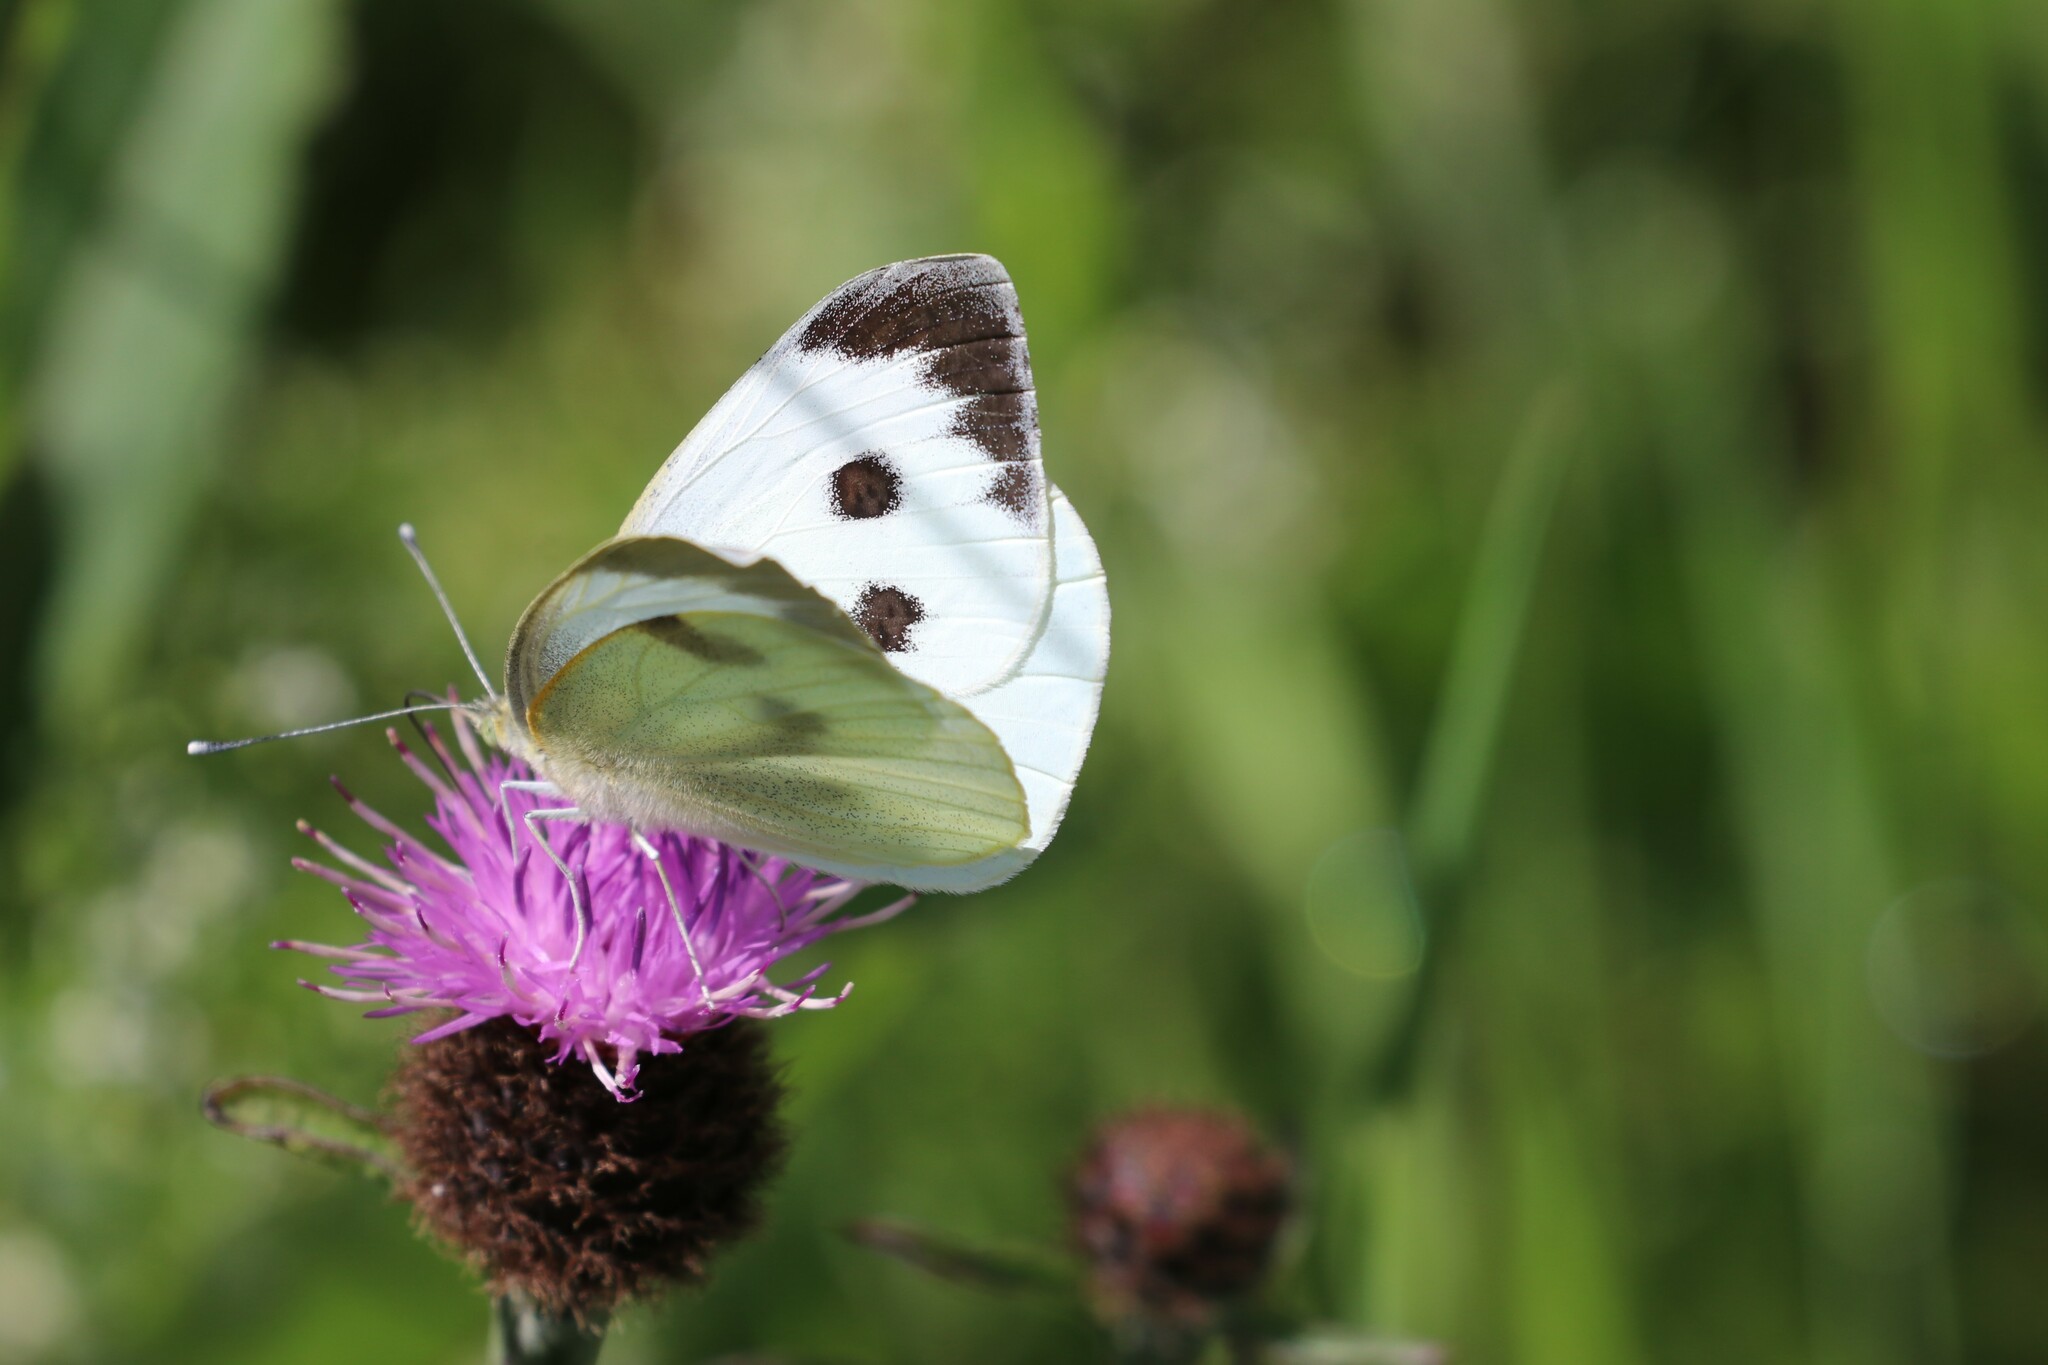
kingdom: Animalia
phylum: Arthropoda
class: Insecta
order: Lepidoptera
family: Pieridae
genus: Pieris
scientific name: Pieris brassicae
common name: Large white
